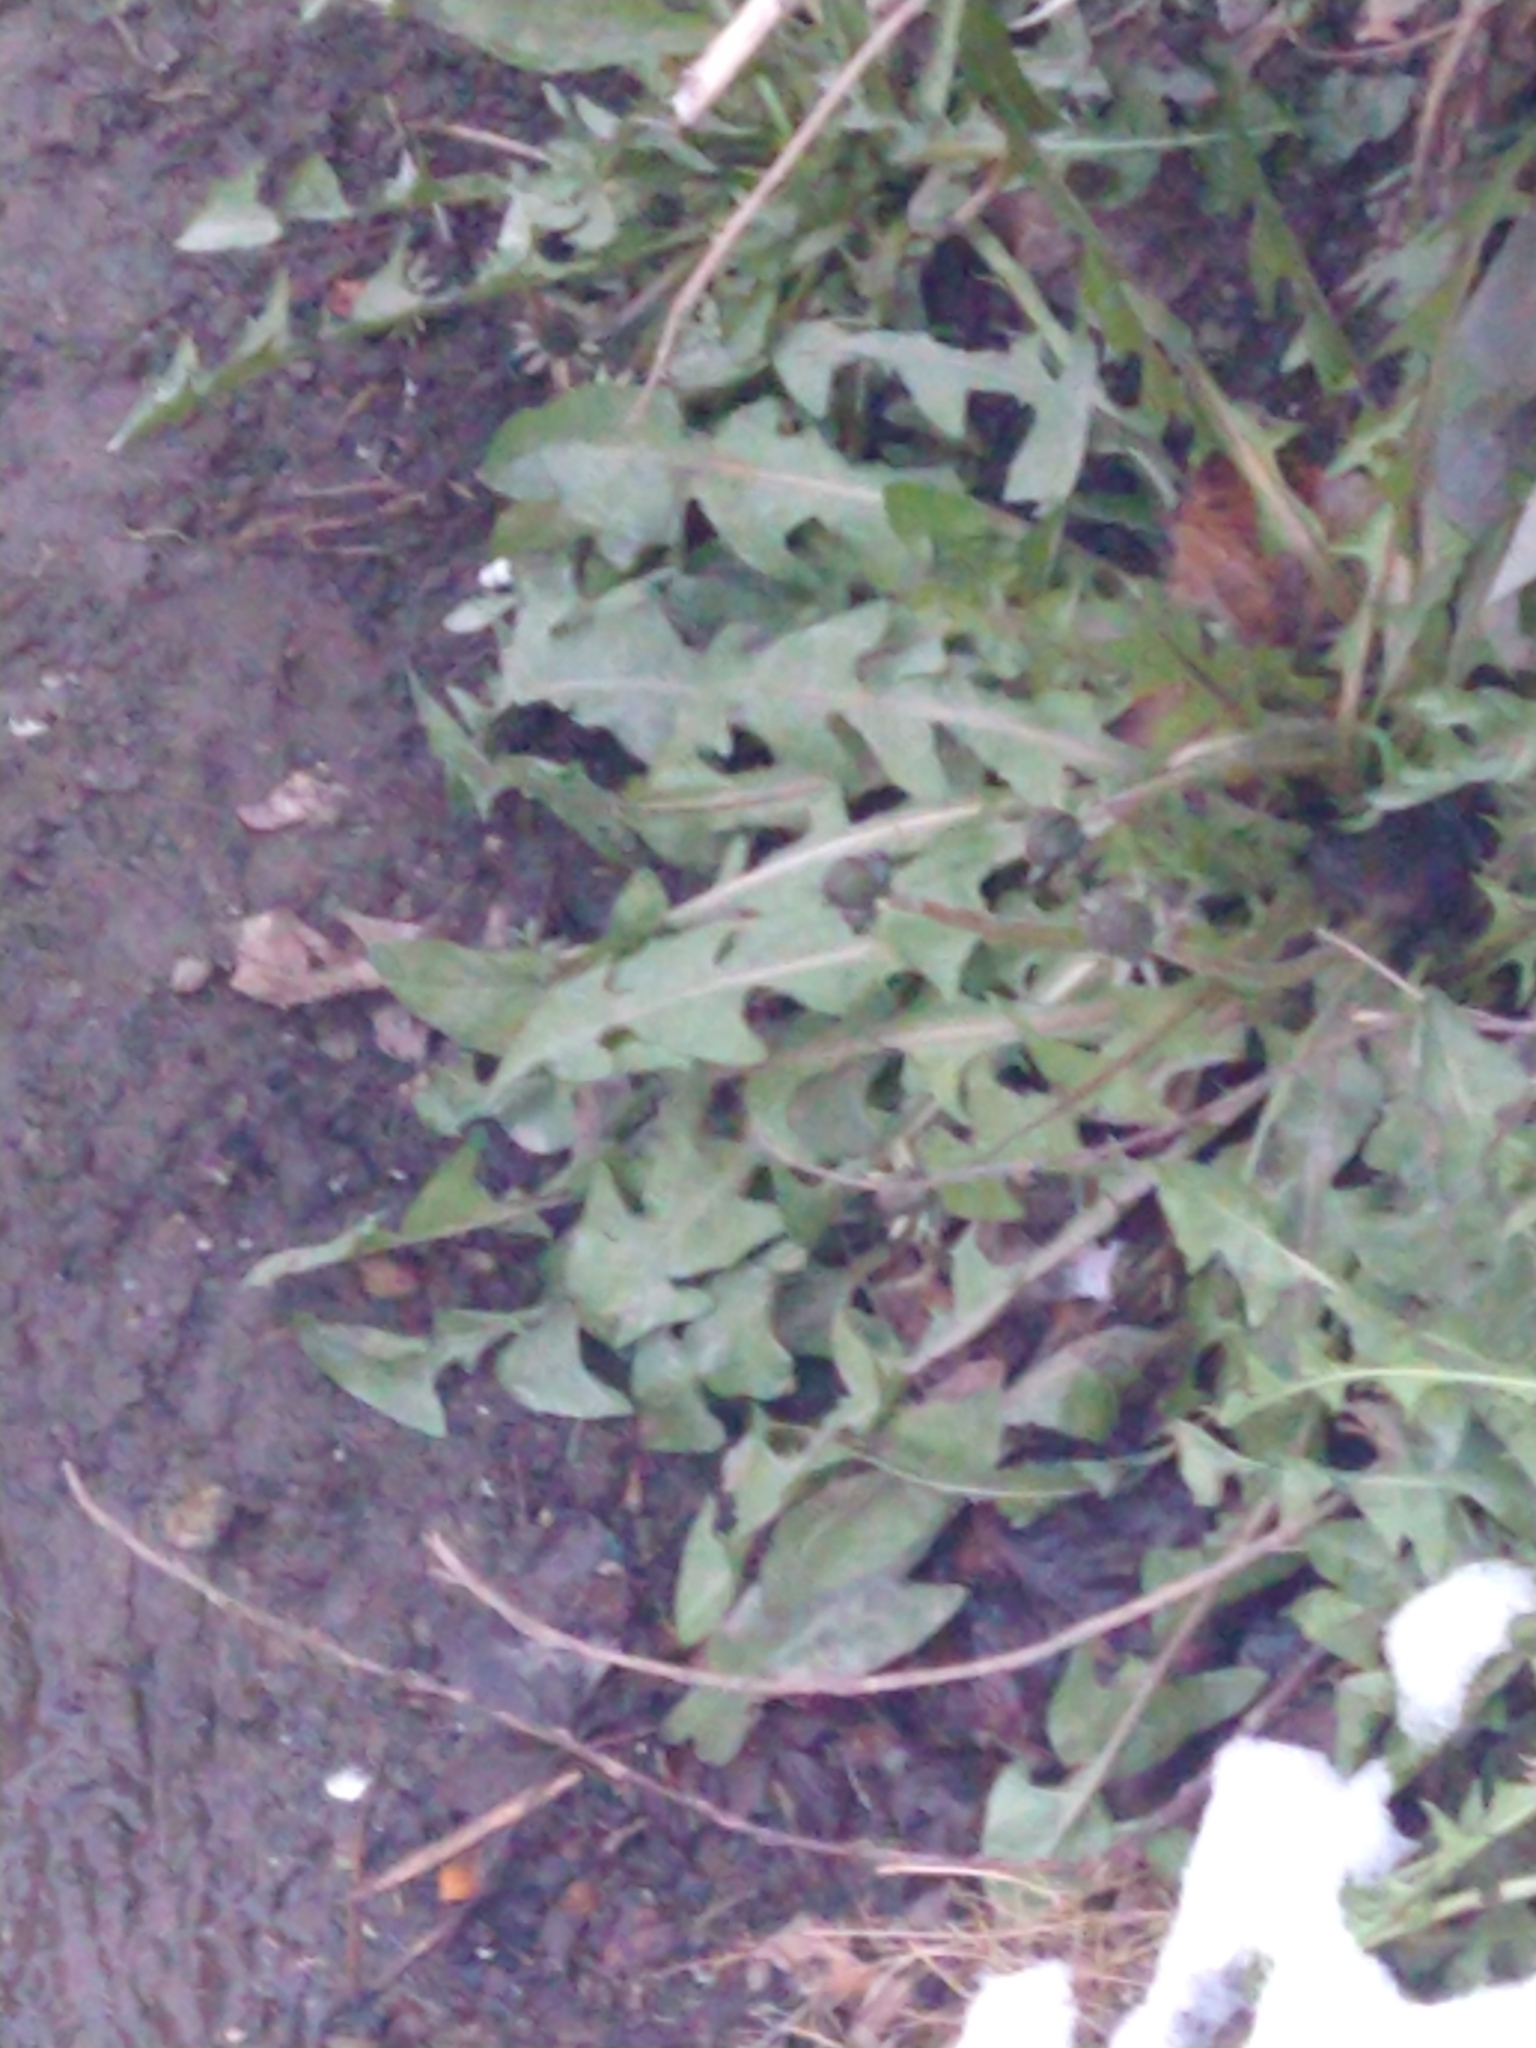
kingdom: Plantae
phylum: Tracheophyta
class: Magnoliopsida
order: Asterales
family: Asteraceae
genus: Taraxacum
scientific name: Taraxacum officinale
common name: Common dandelion
